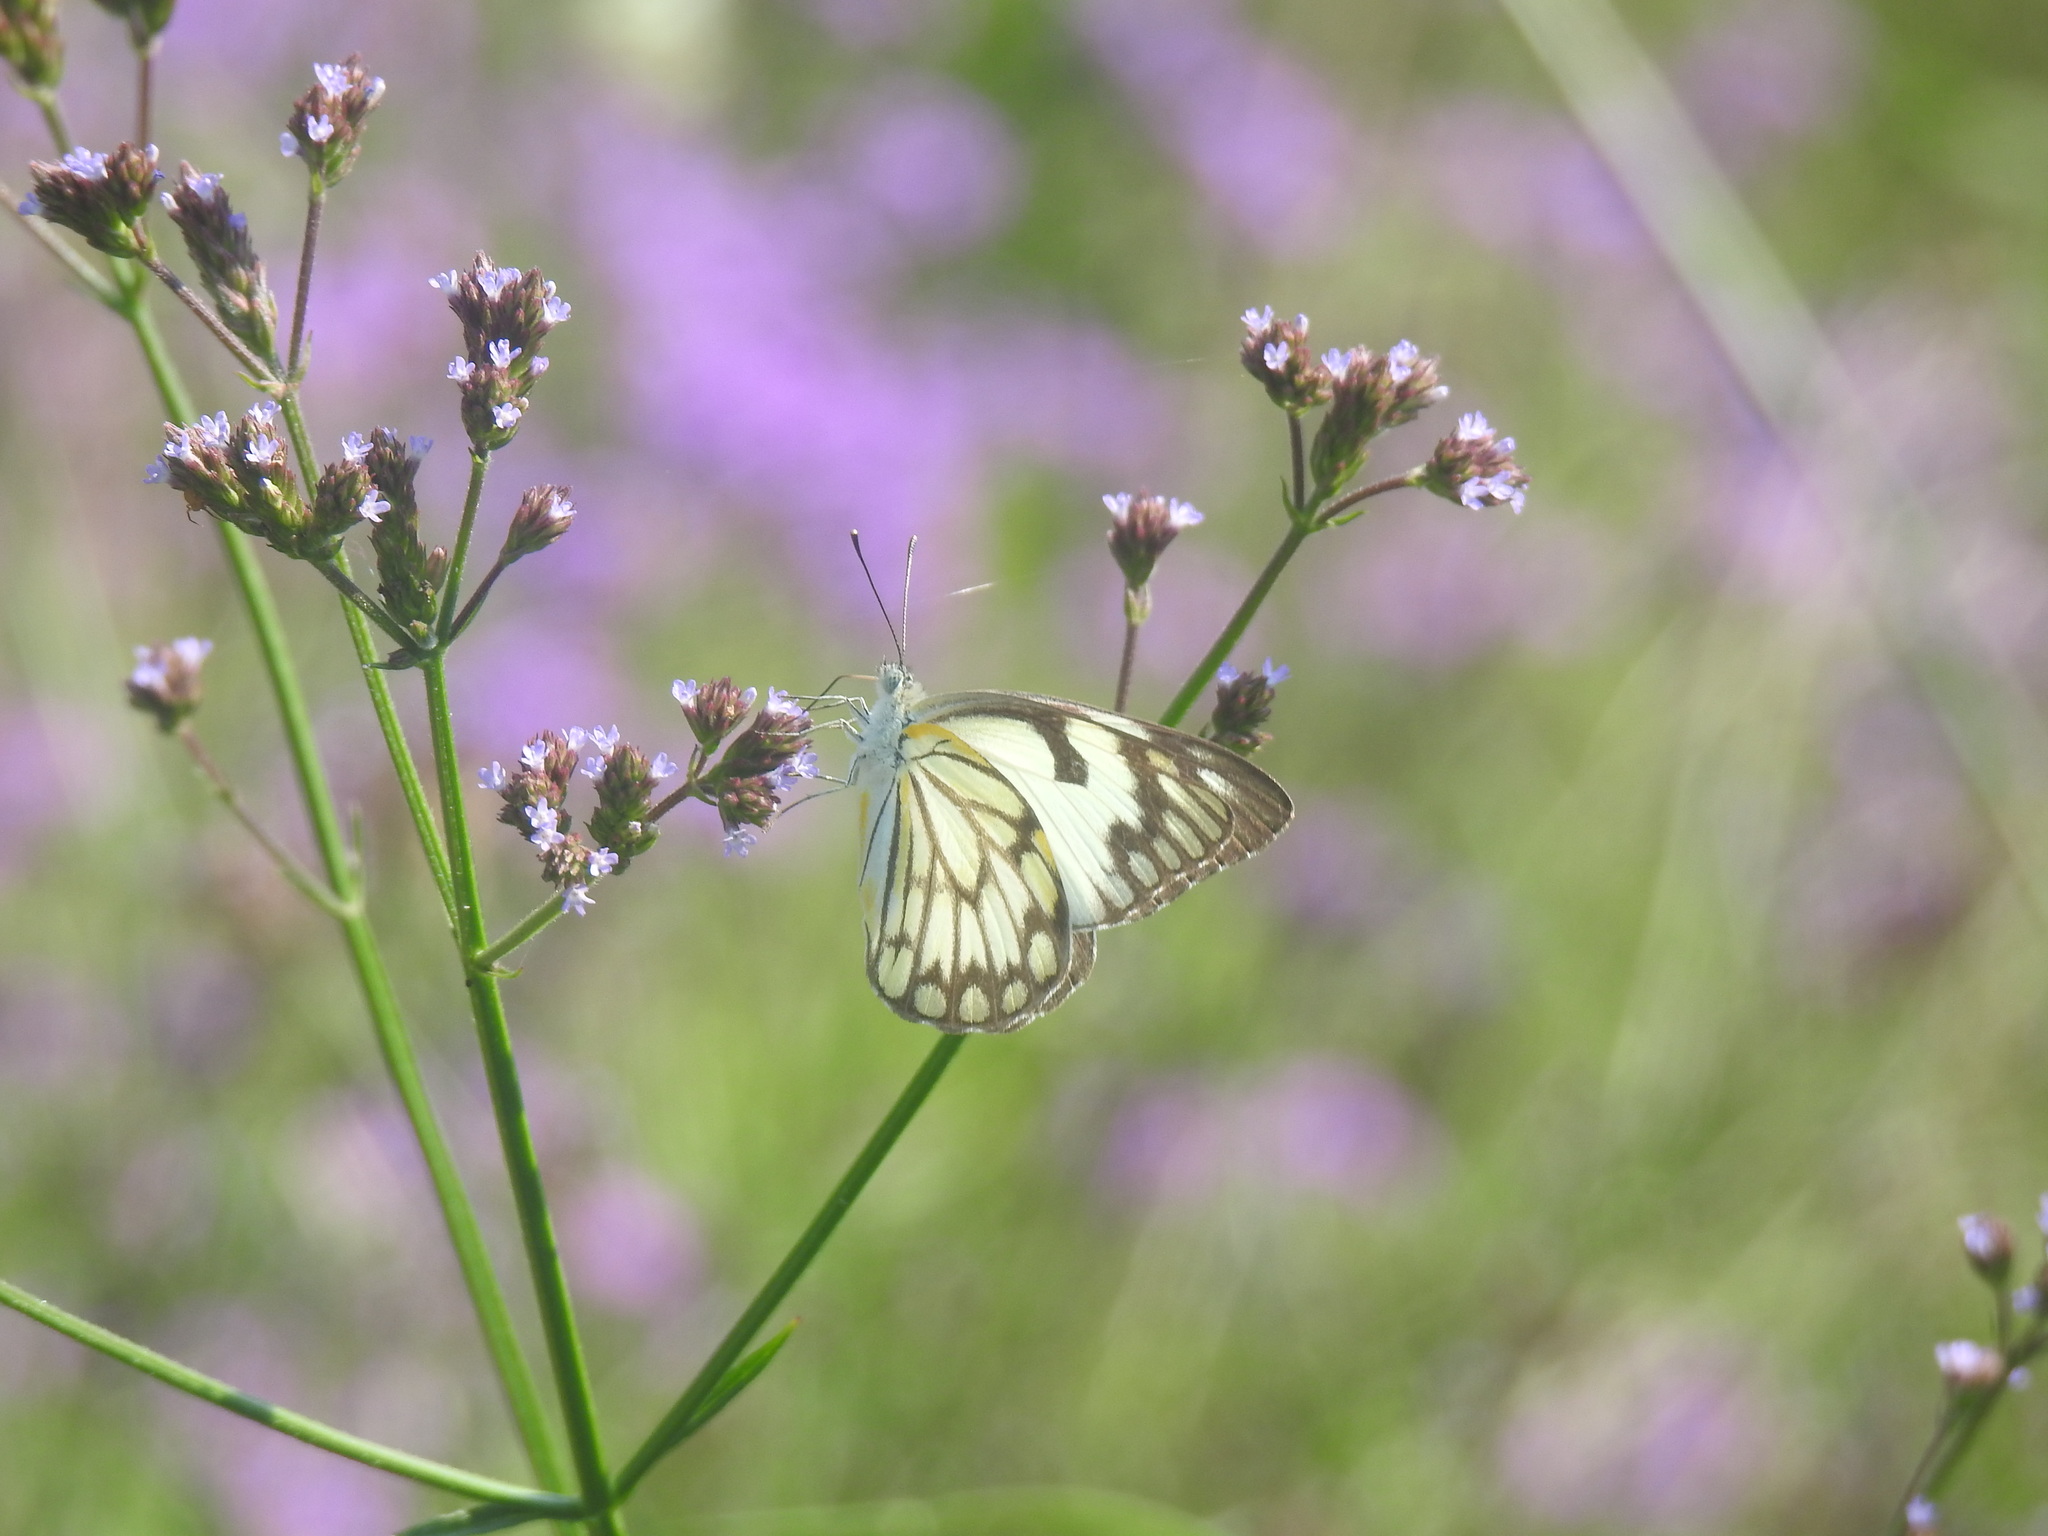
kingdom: Animalia
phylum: Arthropoda
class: Insecta
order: Lepidoptera
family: Pieridae
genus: Belenois
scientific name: Belenois aurota
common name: Brown-veined white
